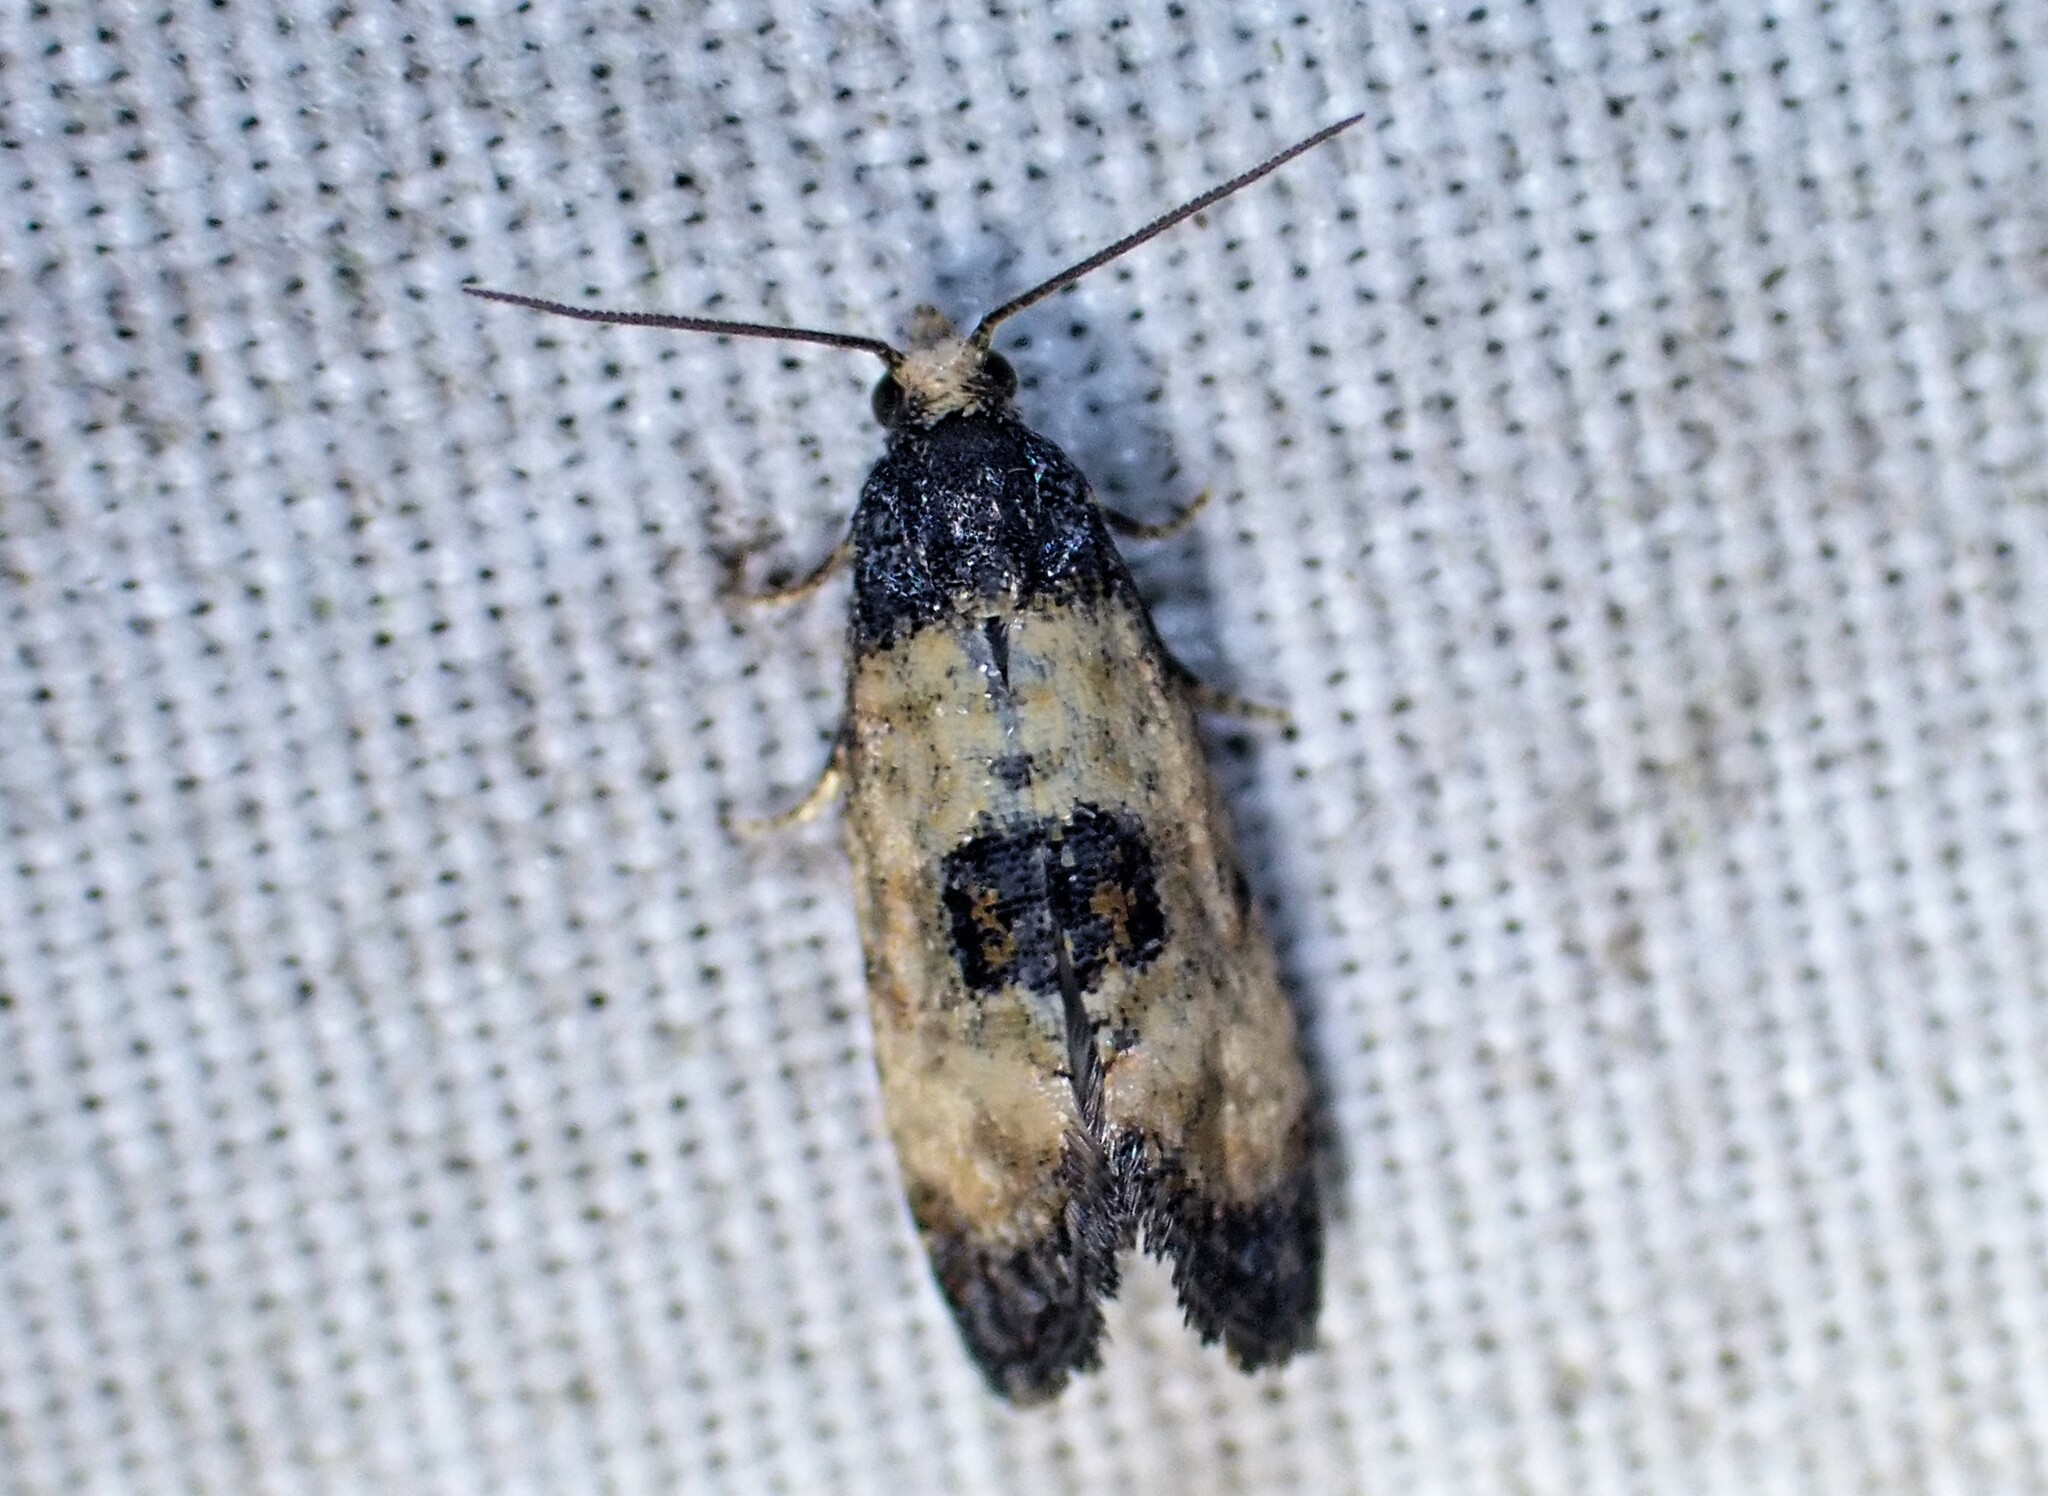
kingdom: Animalia
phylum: Arthropoda
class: Insecta
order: Lepidoptera
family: Tortricidae
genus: Cochylis
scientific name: Cochylis dubitana
